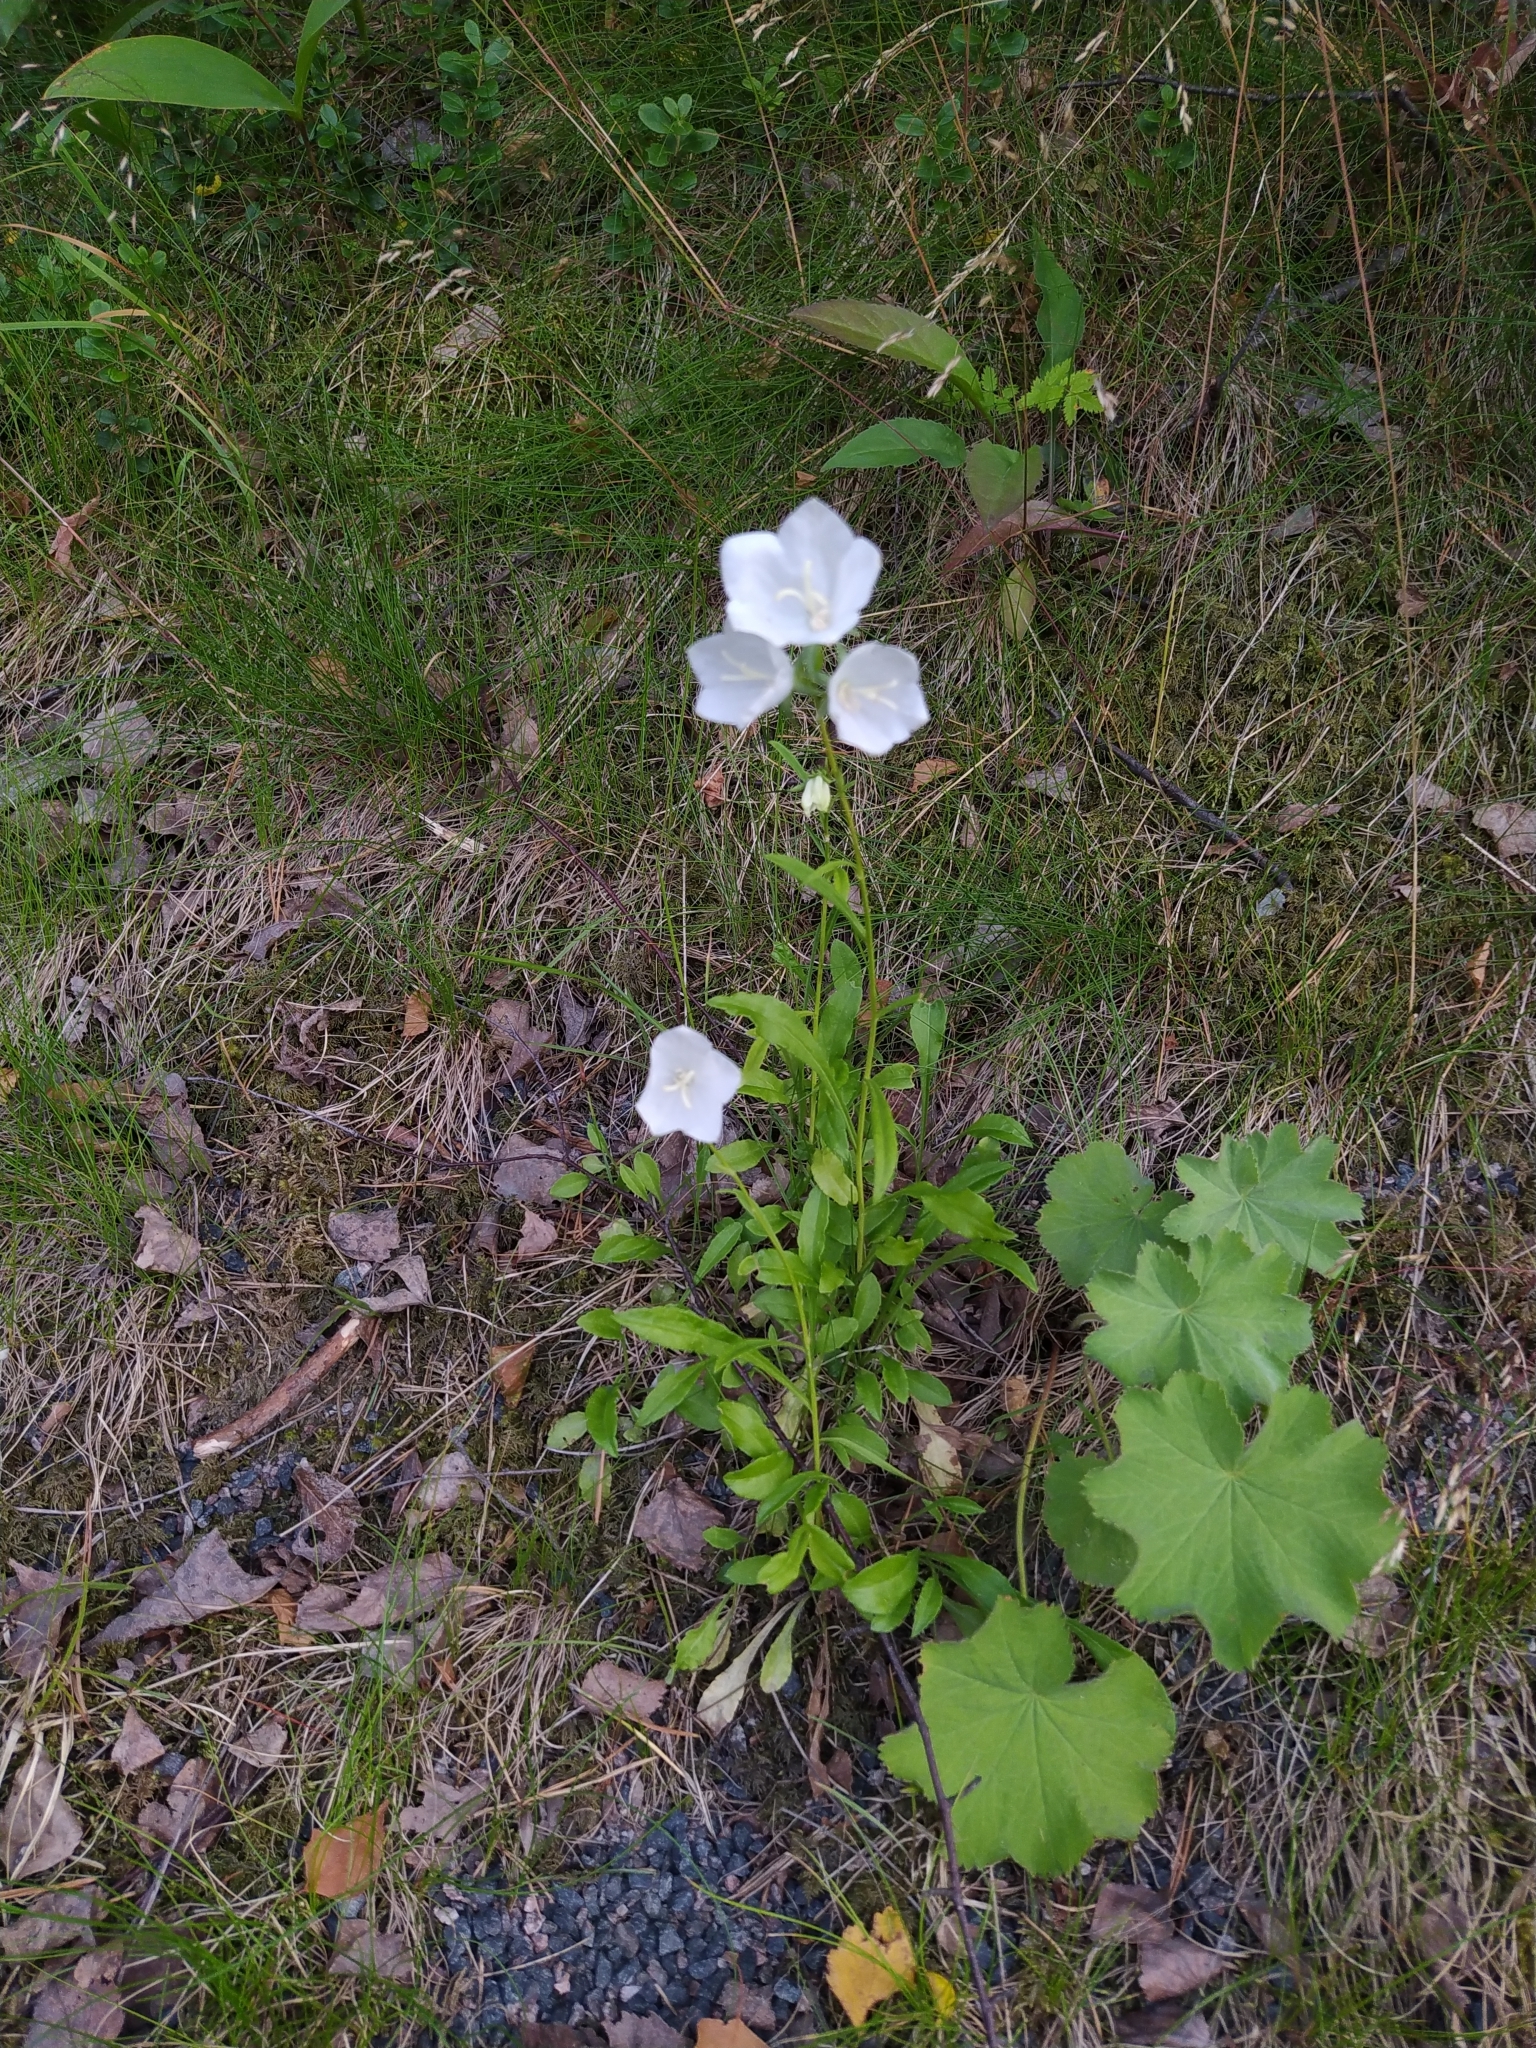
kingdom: Plantae
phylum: Tracheophyta
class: Magnoliopsida
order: Asterales
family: Campanulaceae
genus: Campanula
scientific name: Campanula persicifolia
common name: Peach-leaved bellflower
